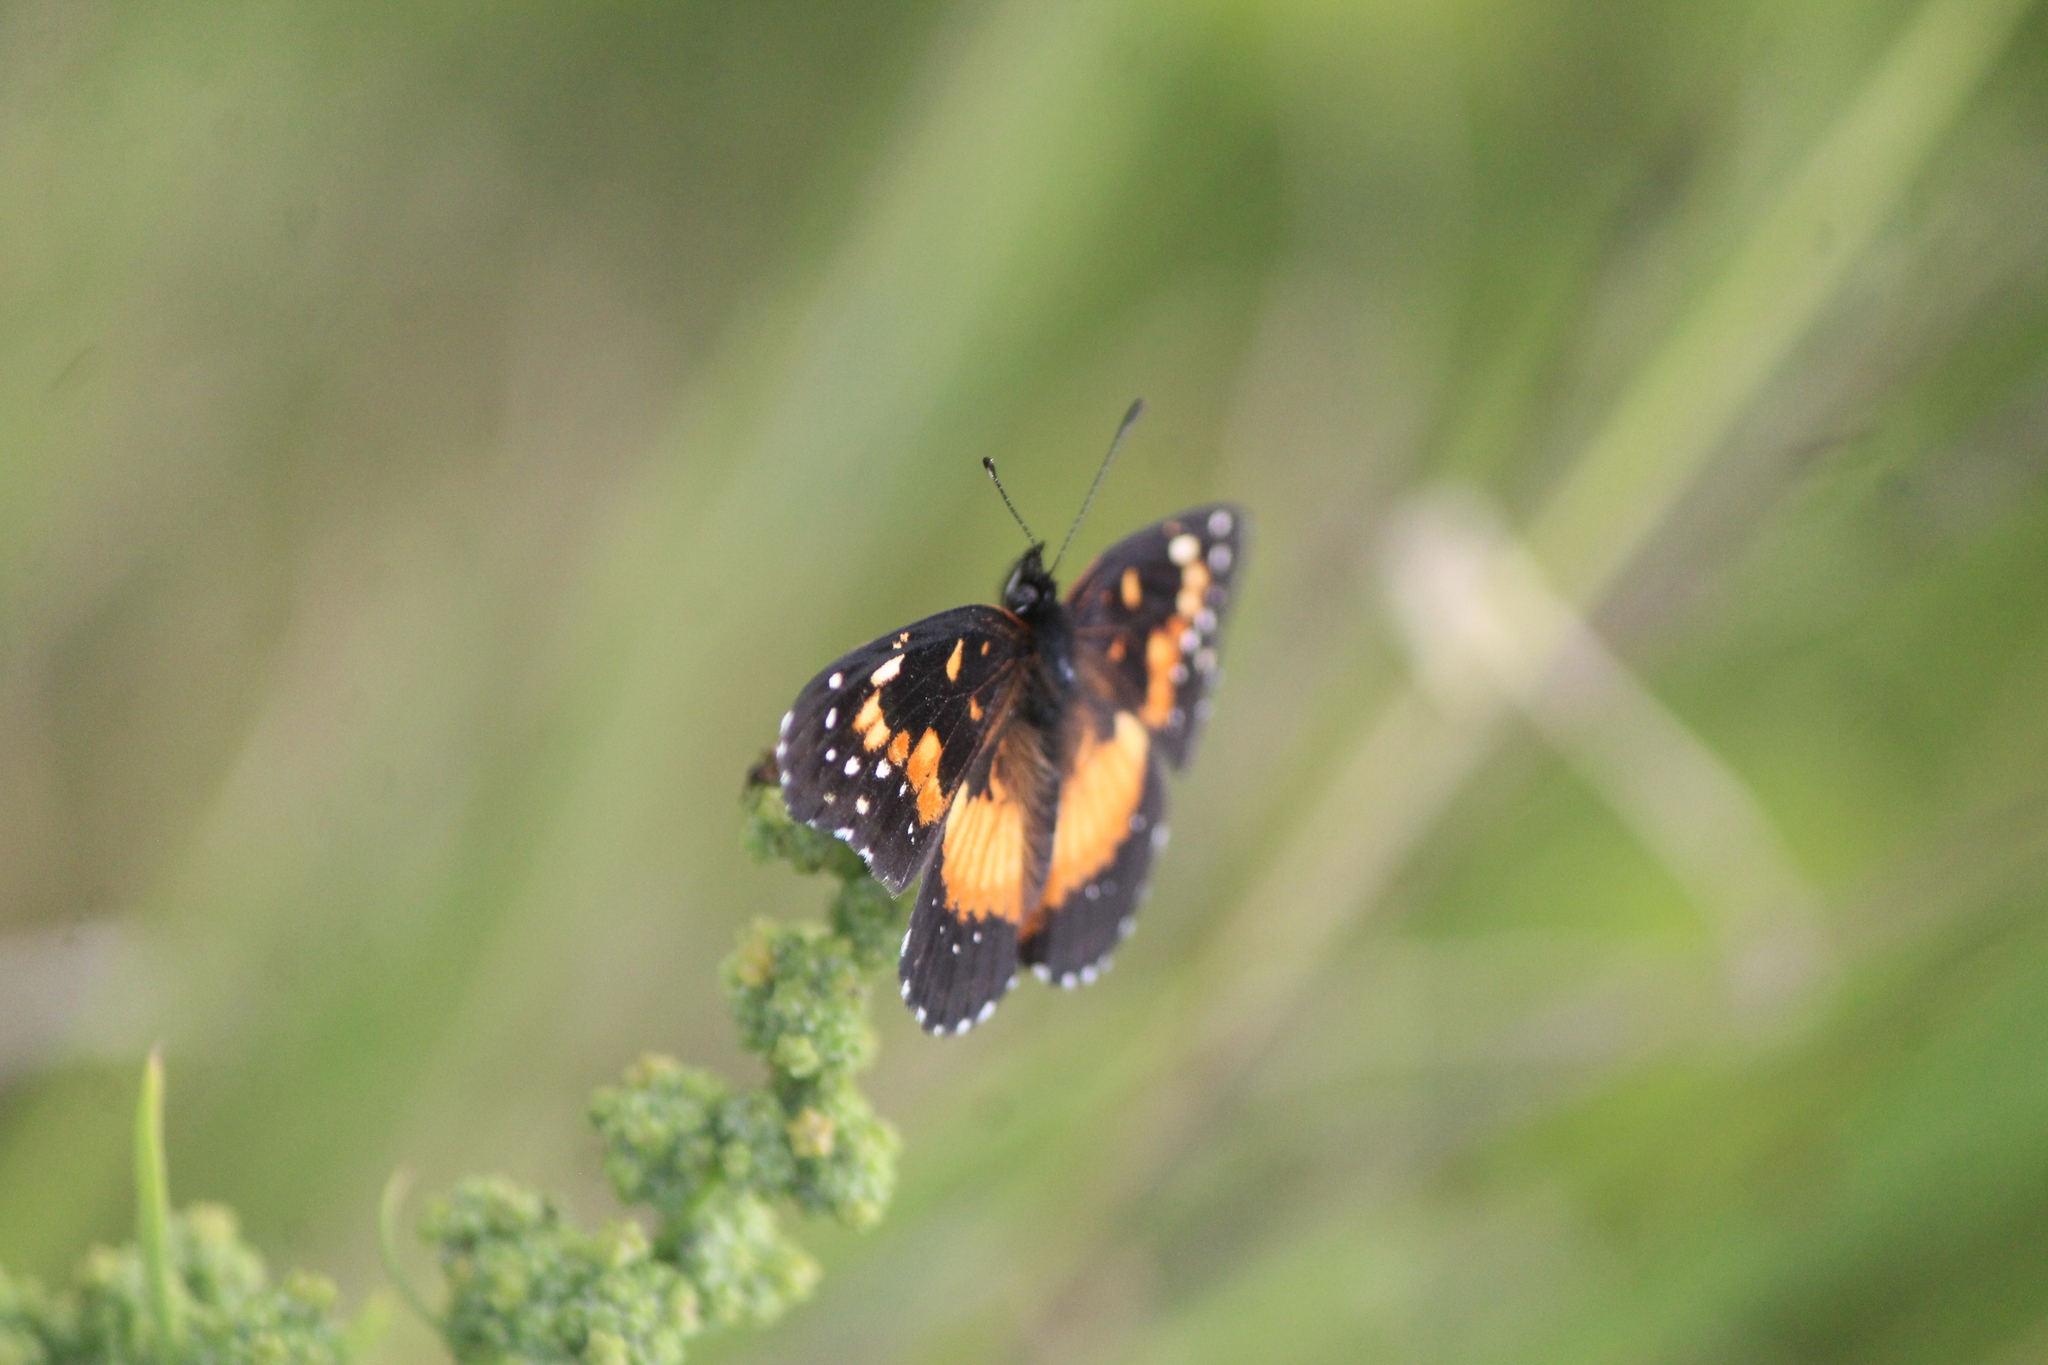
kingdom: Animalia
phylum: Arthropoda
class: Insecta
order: Lepidoptera
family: Nymphalidae
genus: Chlosyne
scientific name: Chlosyne lacinia
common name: Bordered patch
